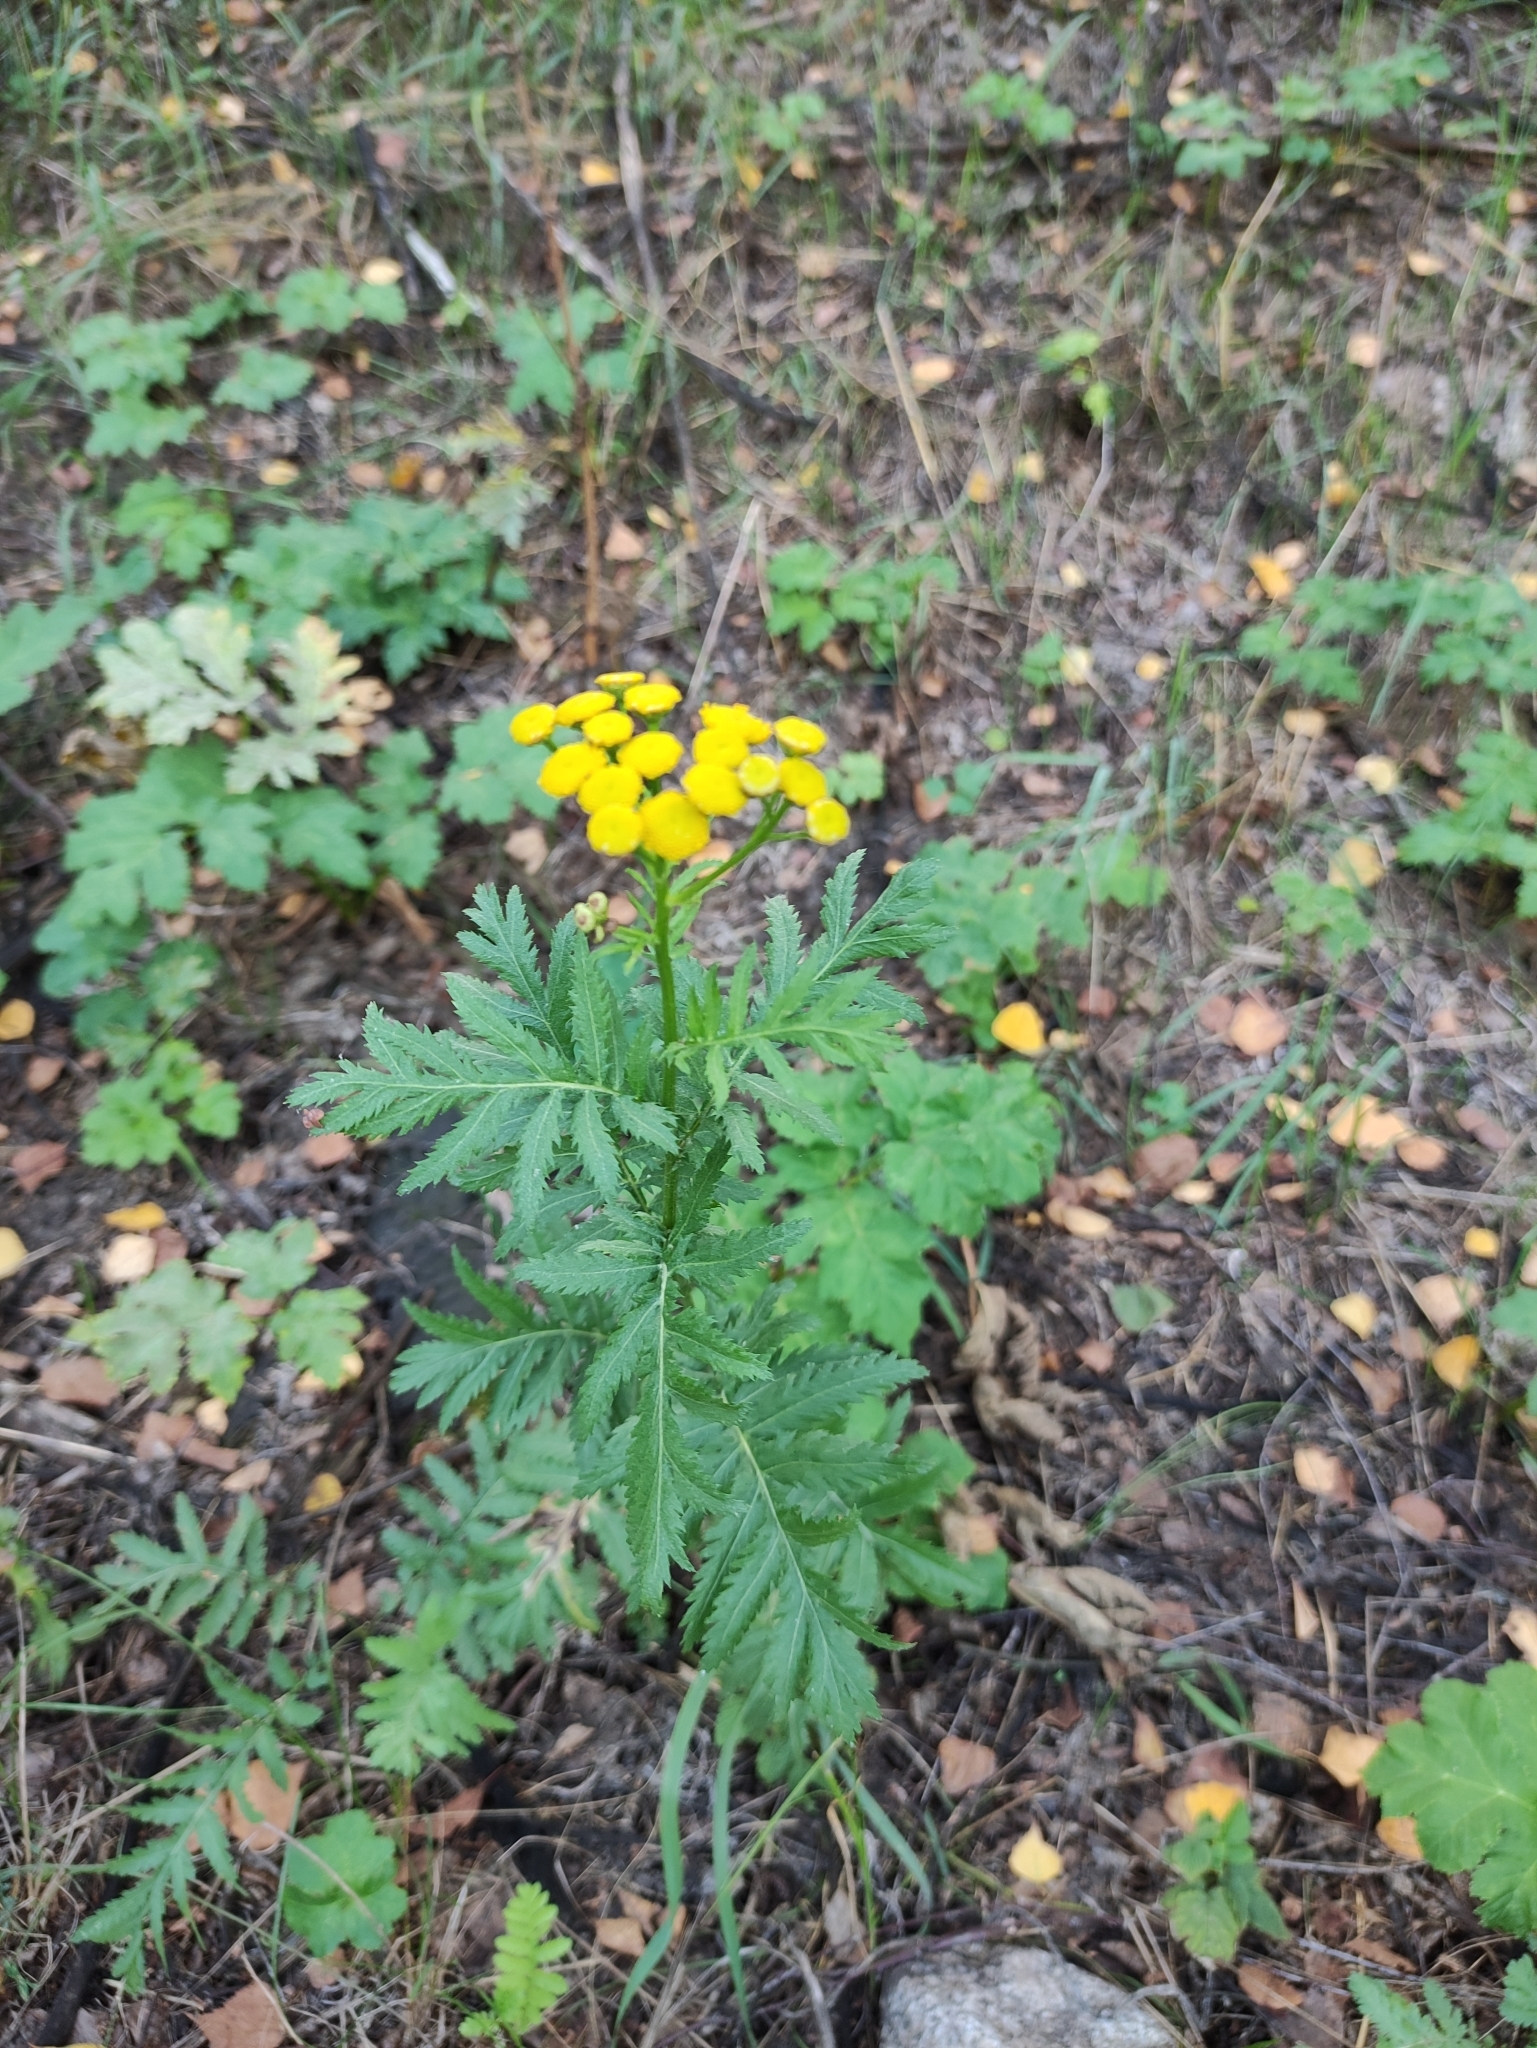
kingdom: Plantae
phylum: Tracheophyta
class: Magnoliopsida
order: Asterales
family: Asteraceae
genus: Tanacetum
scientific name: Tanacetum vulgare
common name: Common tansy
